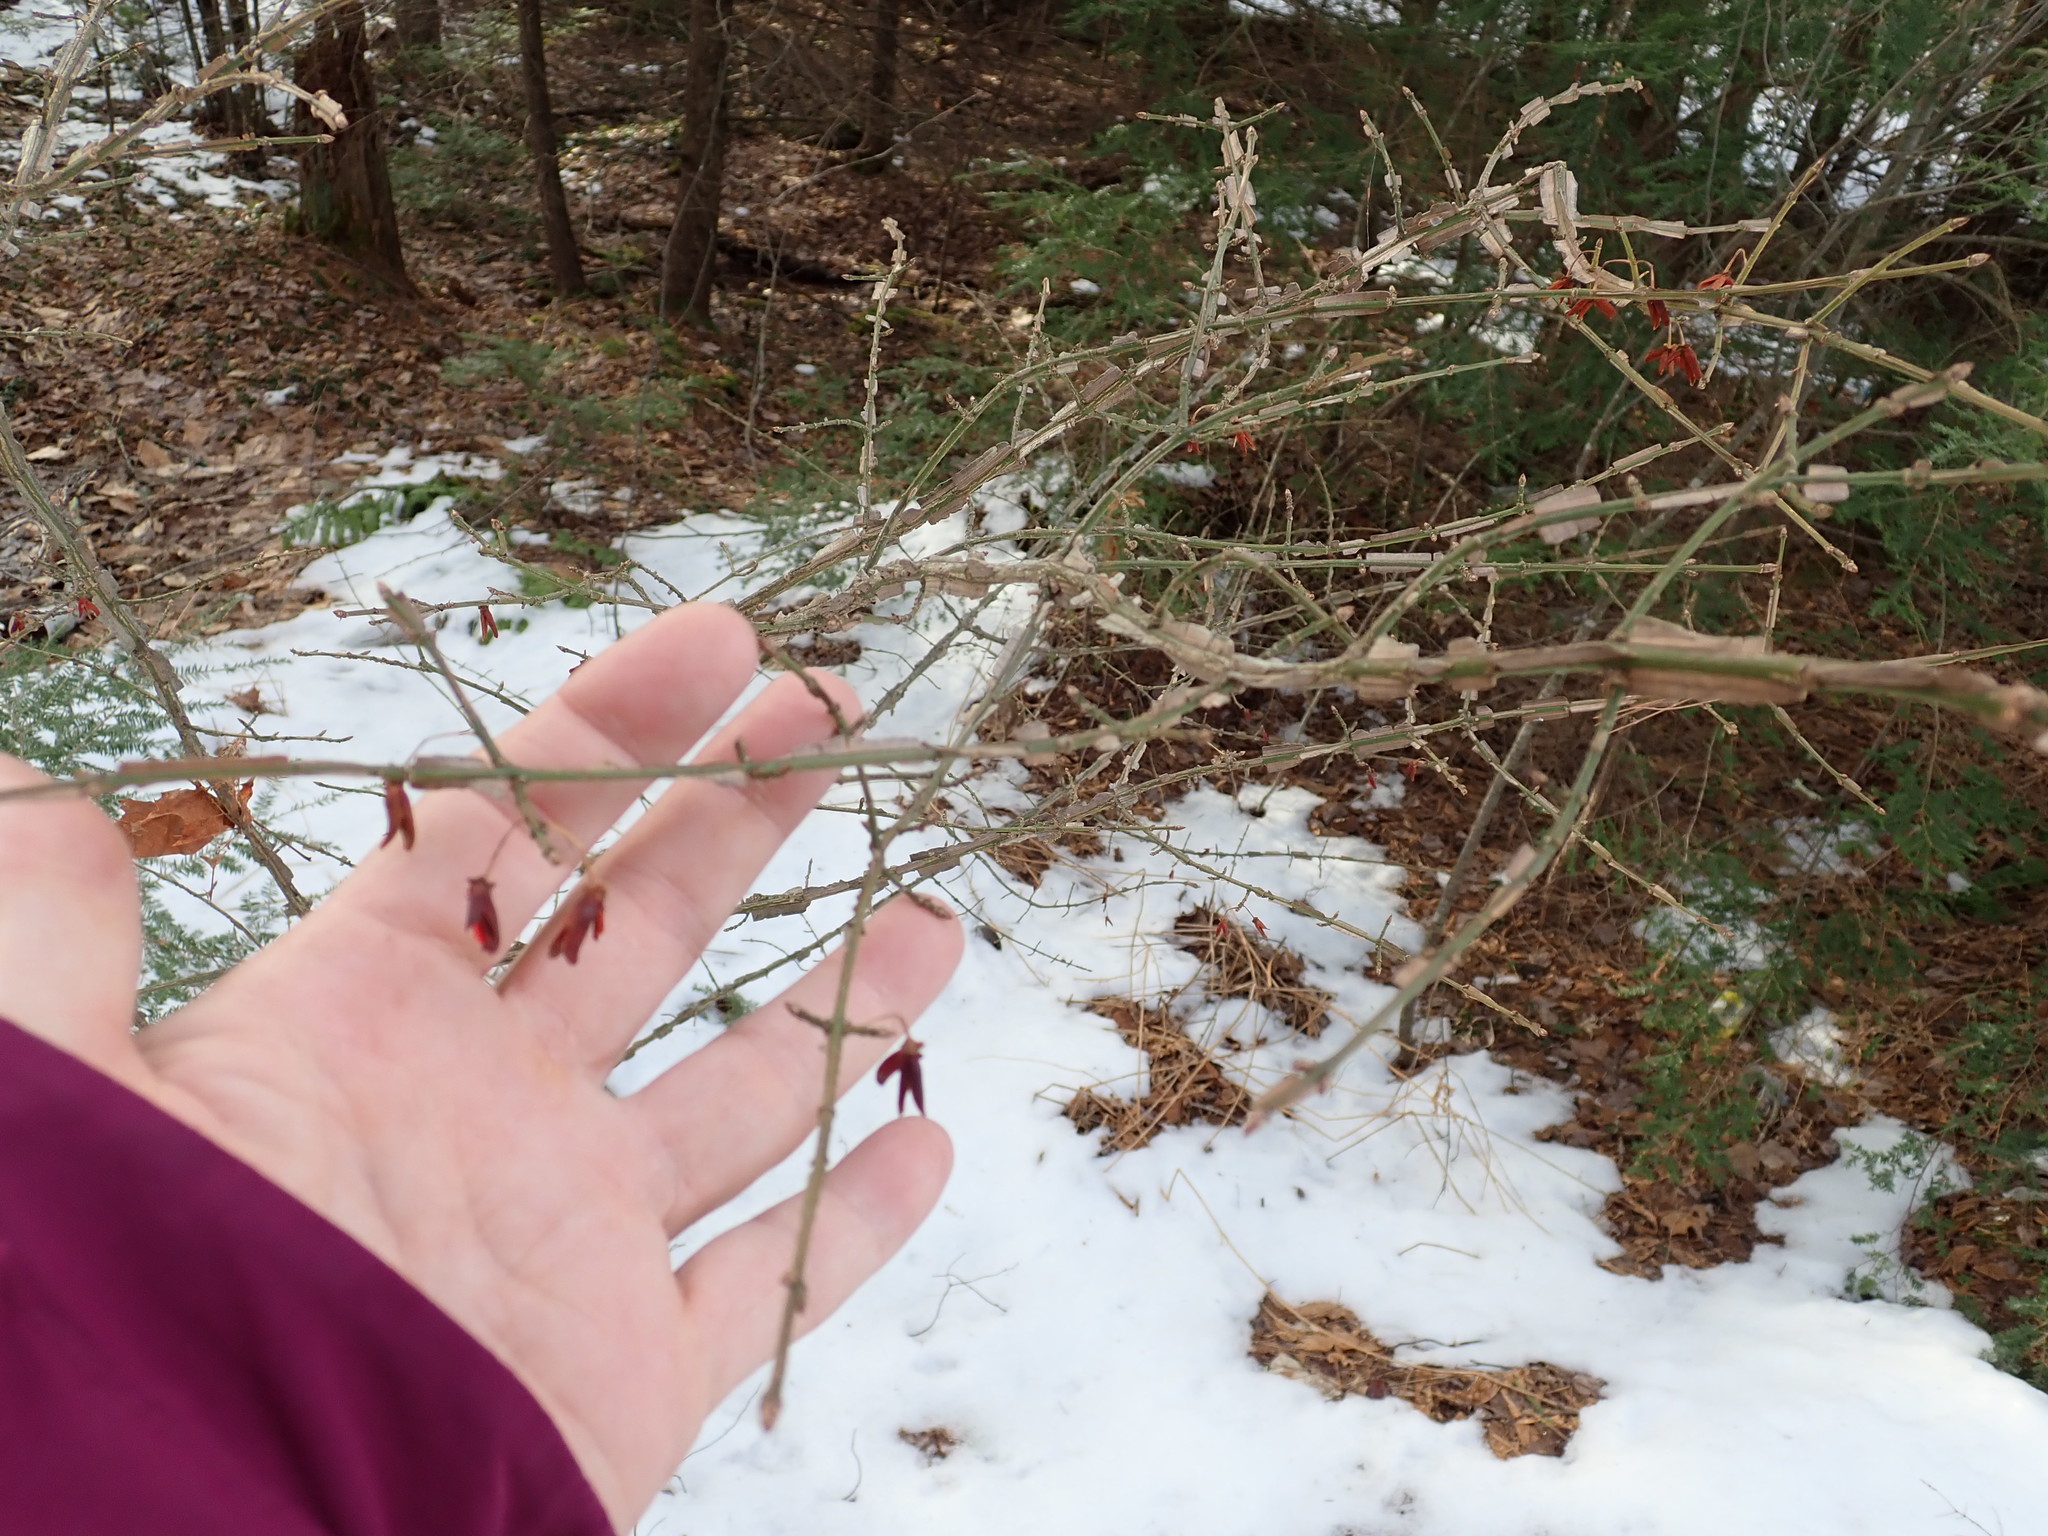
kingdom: Plantae
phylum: Tracheophyta
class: Magnoliopsida
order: Celastrales
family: Celastraceae
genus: Euonymus
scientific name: Euonymus alatus
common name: Winged euonymus
